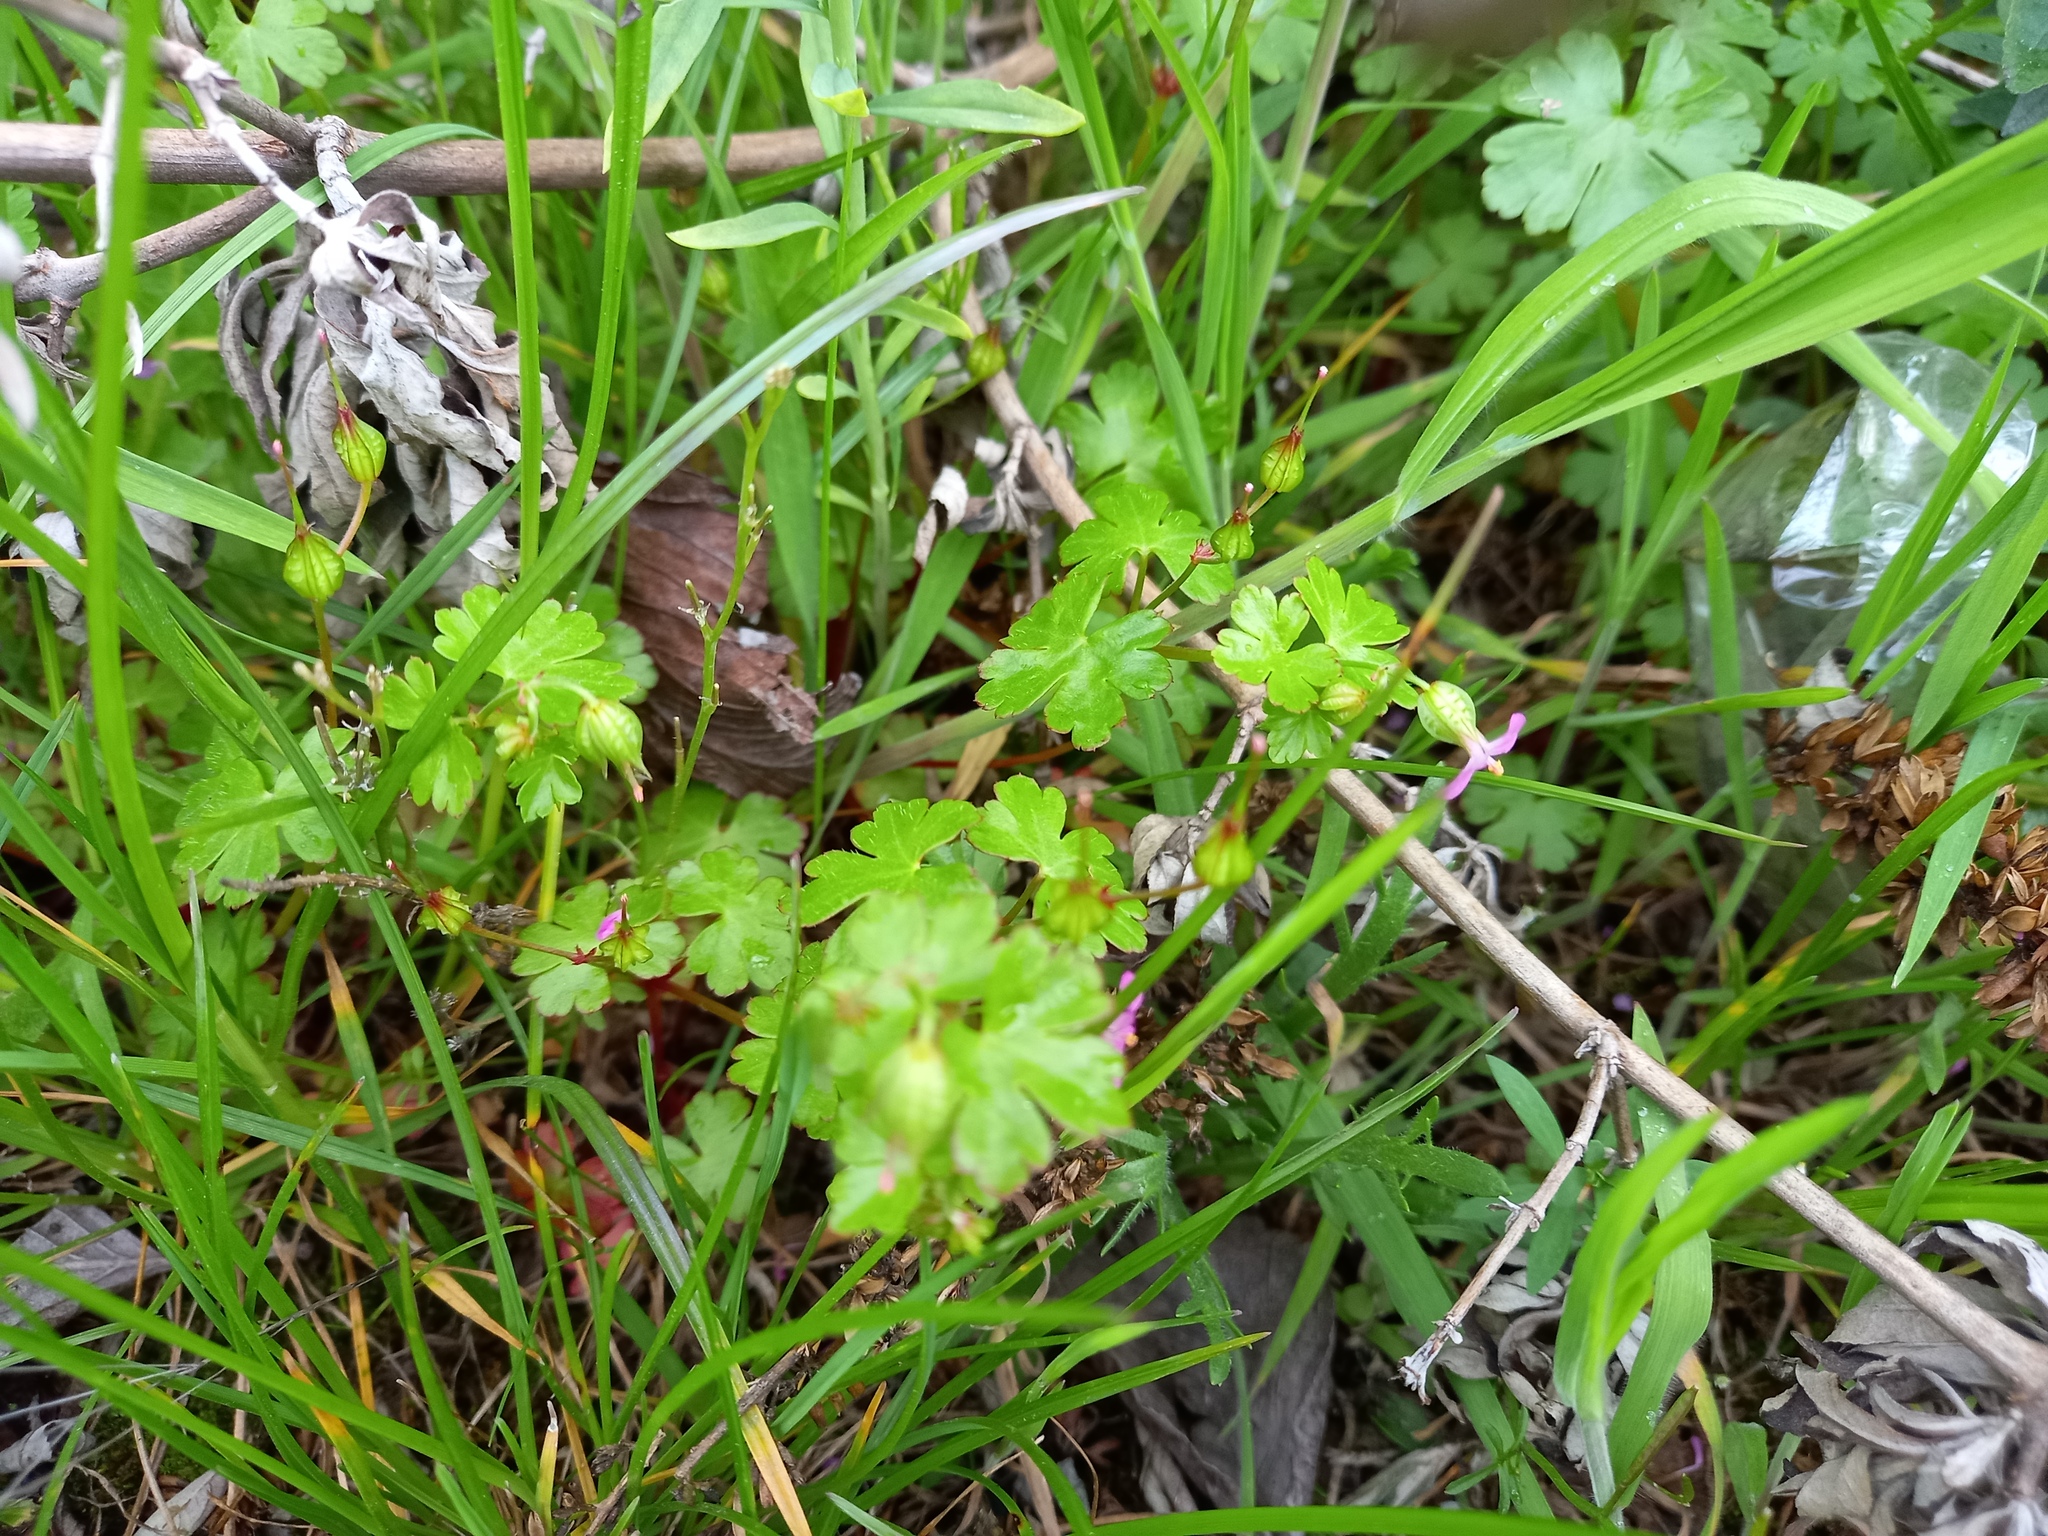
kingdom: Plantae
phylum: Tracheophyta
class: Magnoliopsida
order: Geraniales
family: Geraniaceae
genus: Geranium
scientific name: Geranium lucidum
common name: Shining crane's-bill
